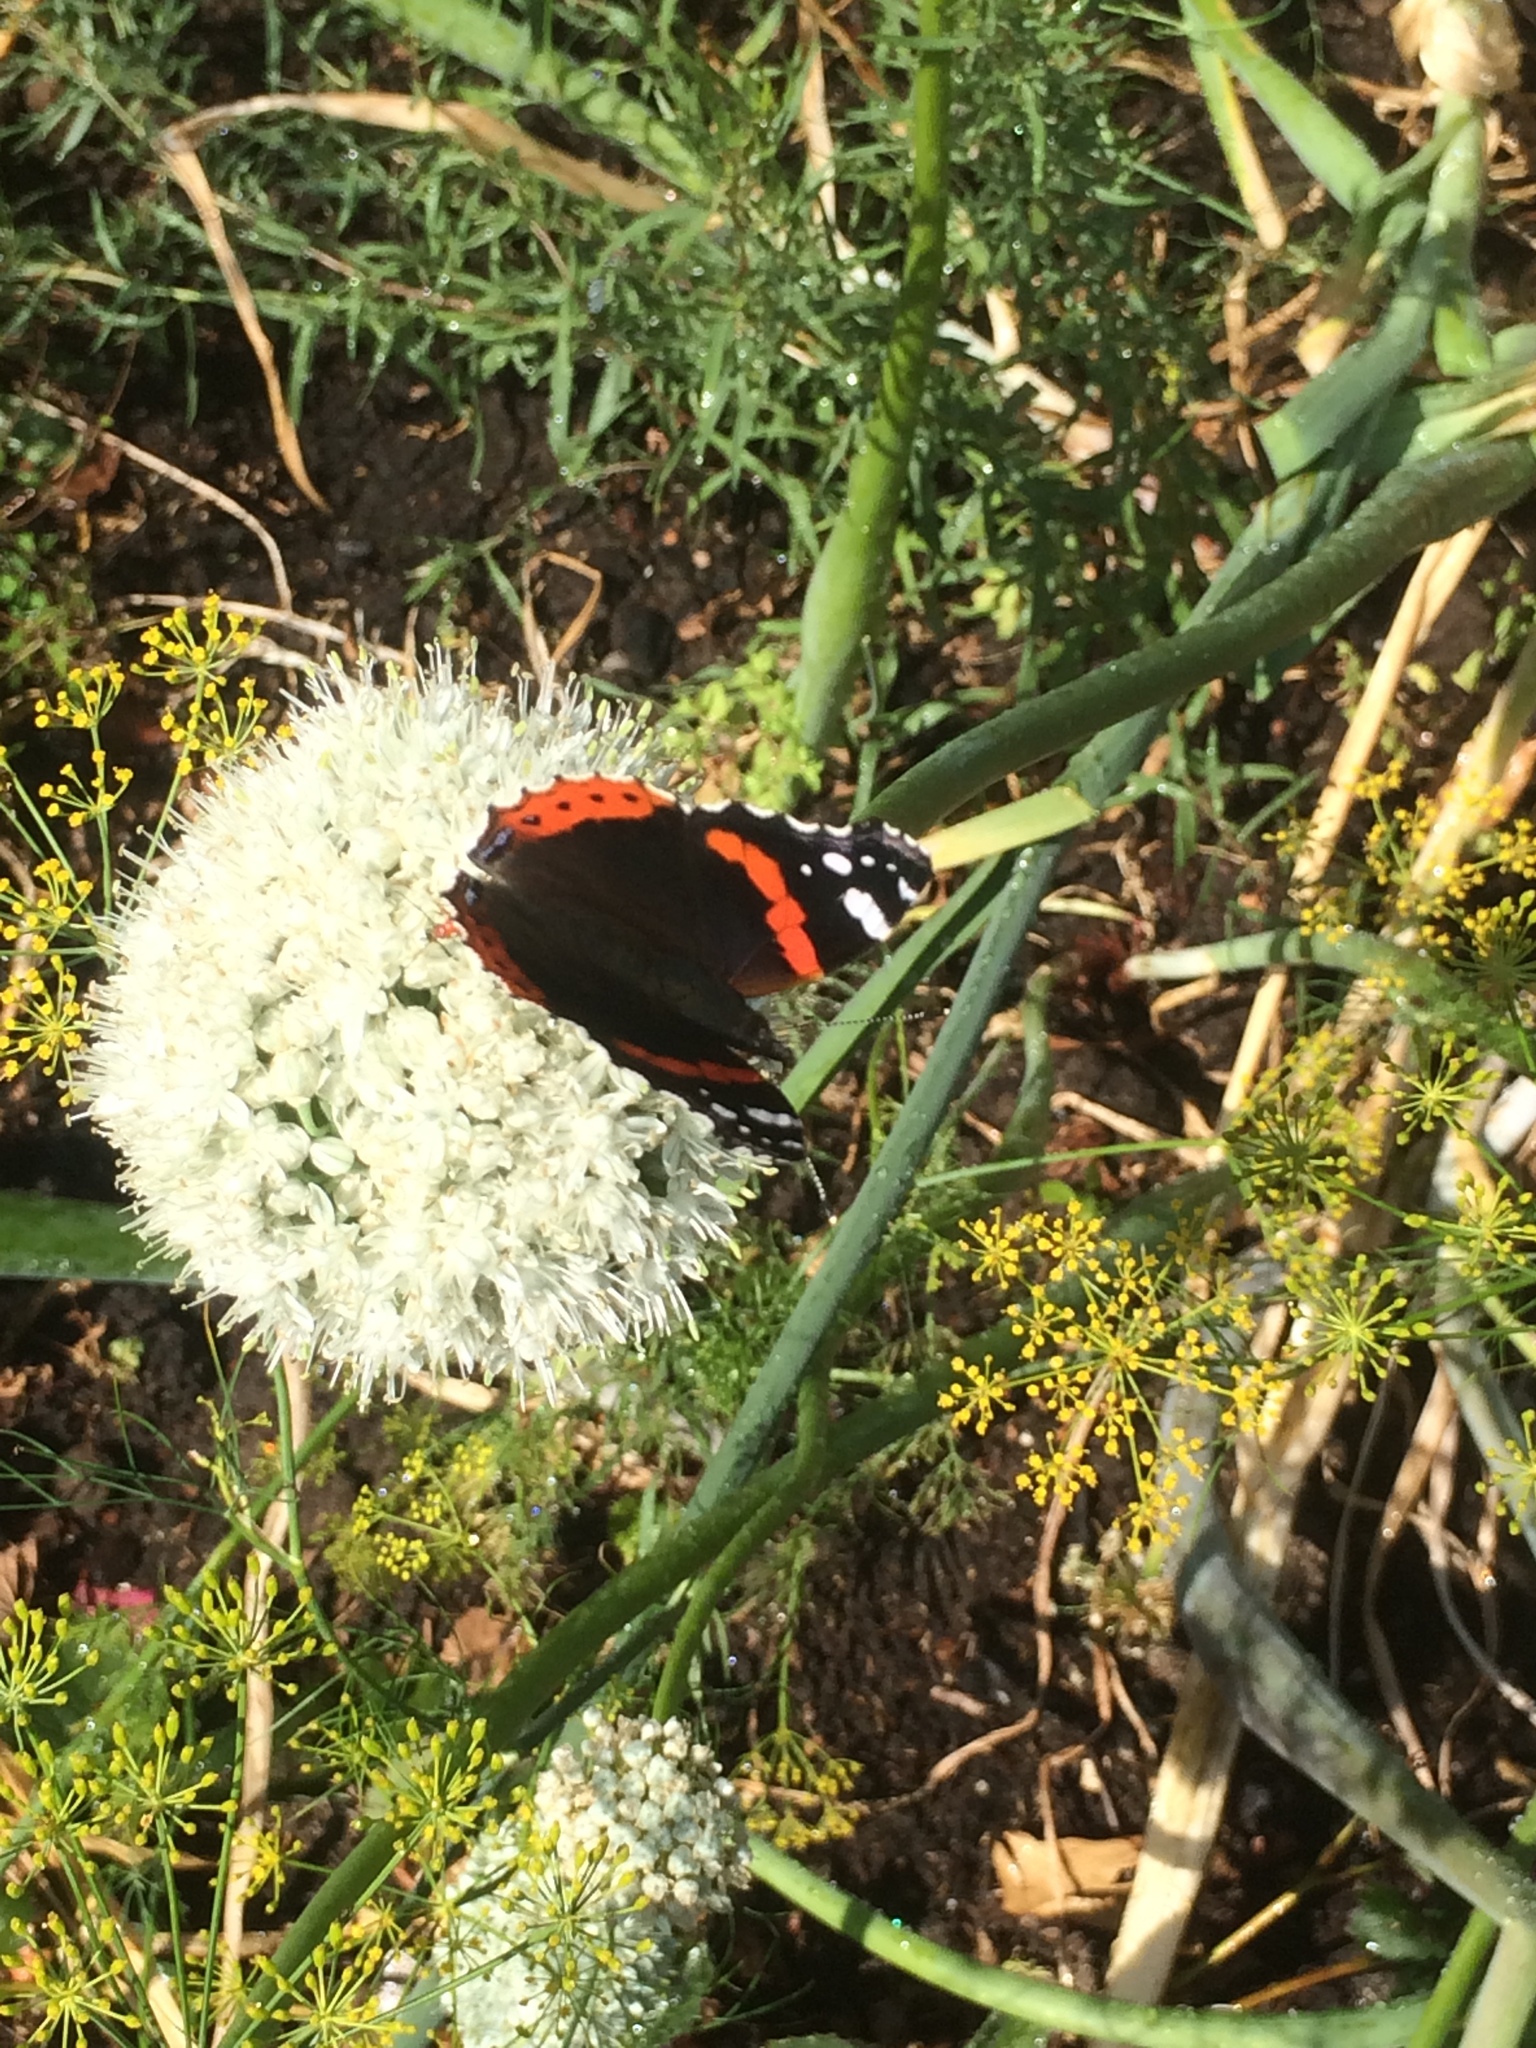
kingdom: Animalia
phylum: Arthropoda
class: Insecta
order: Lepidoptera
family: Nymphalidae
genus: Vanessa
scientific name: Vanessa atalanta
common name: Red admiral
